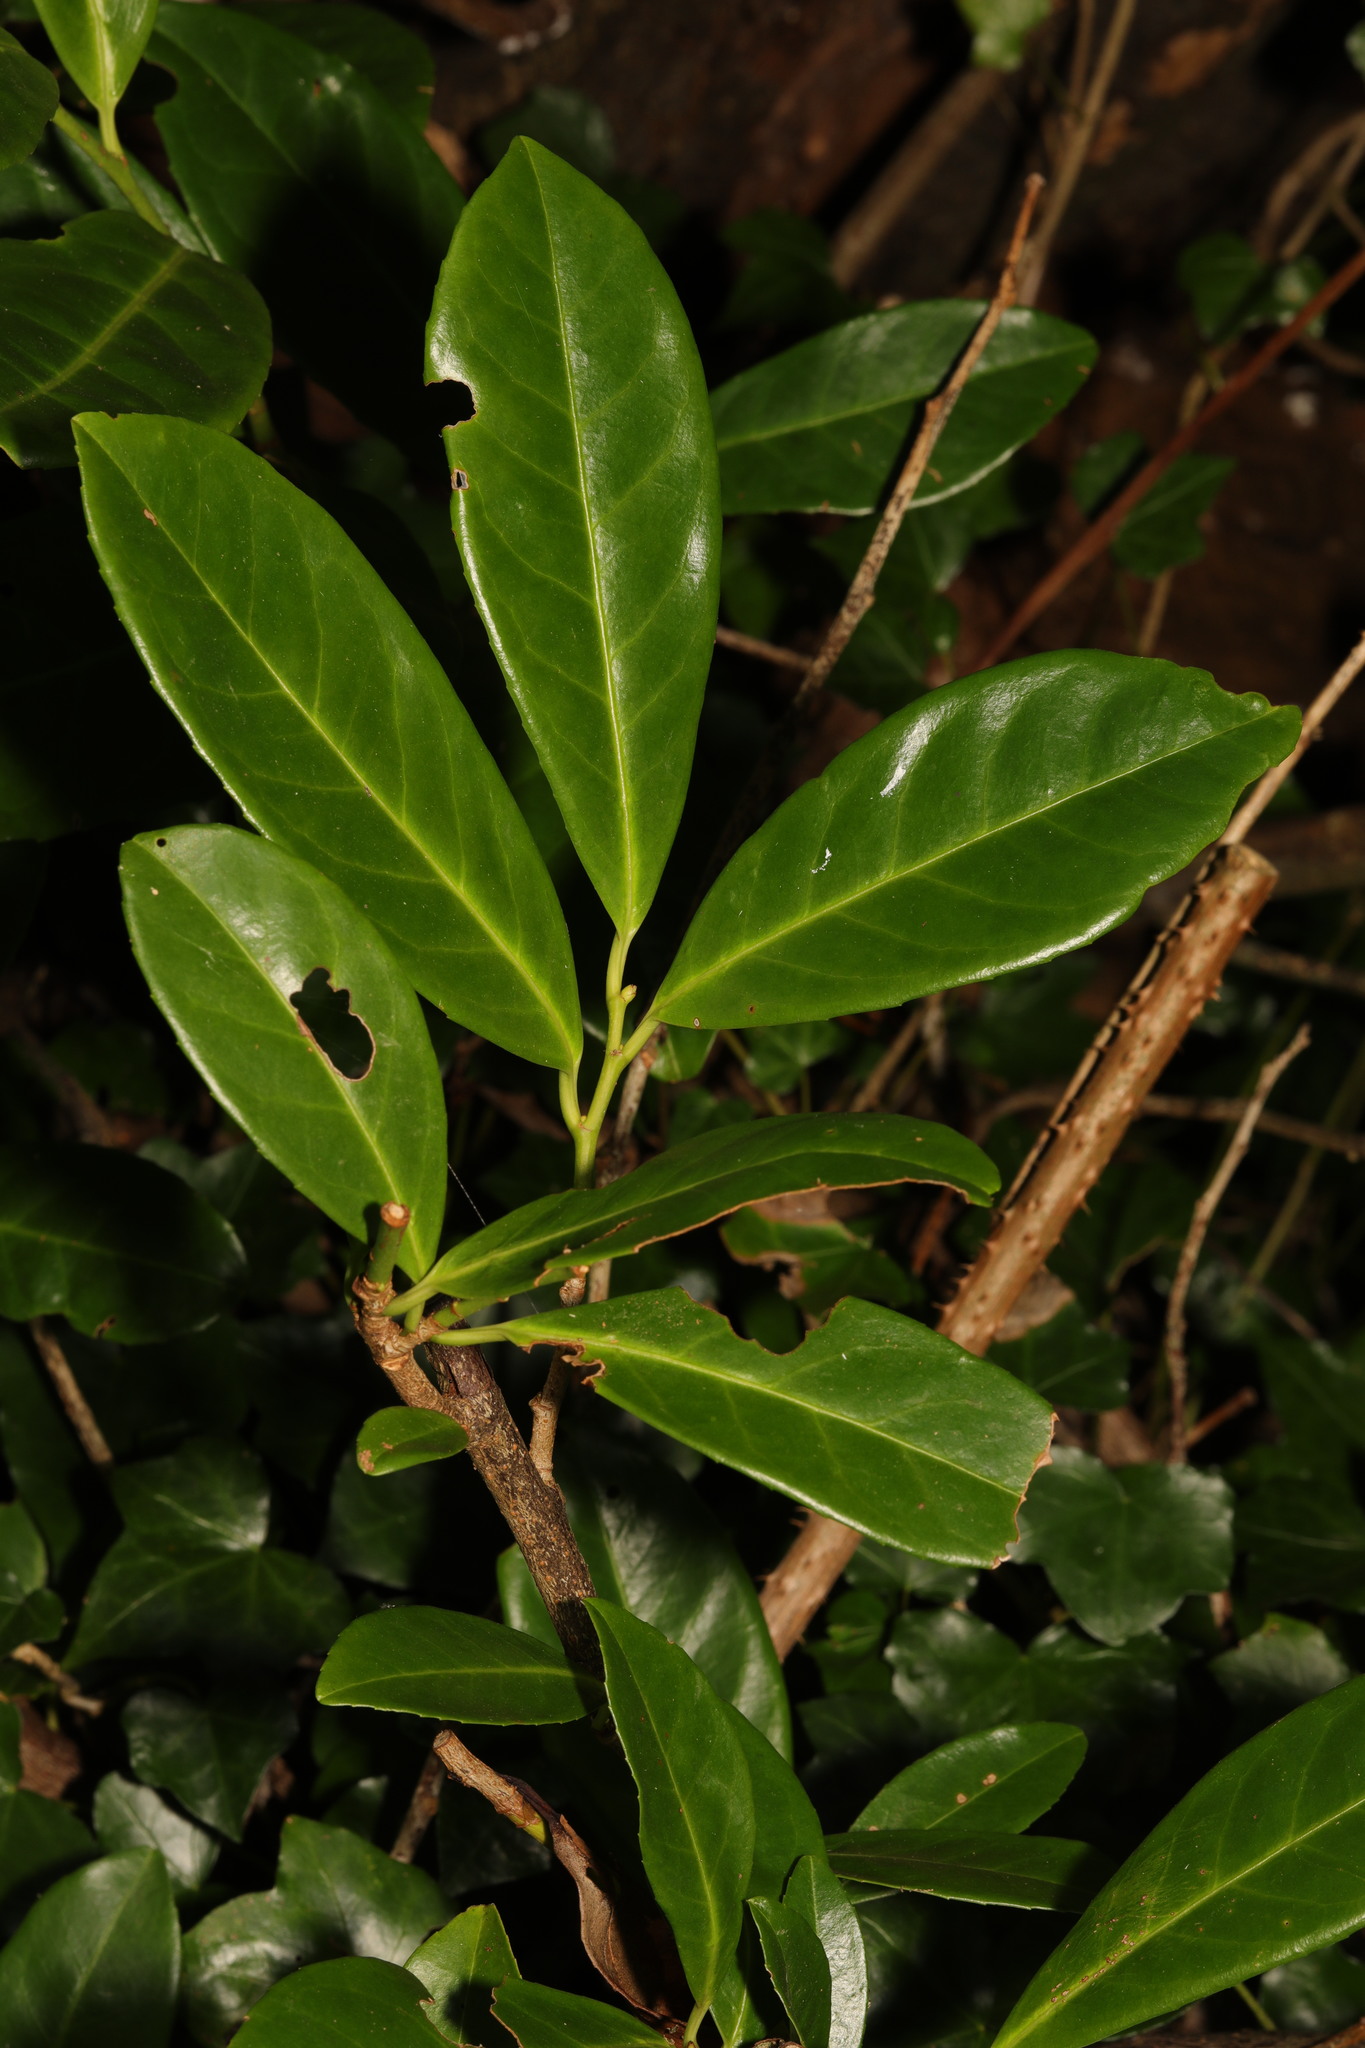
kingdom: Plantae
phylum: Tracheophyta
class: Magnoliopsida
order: Rosales
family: Rosaceae
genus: Prunus
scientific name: Prunus laurocerasus
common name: Cherry laurel
